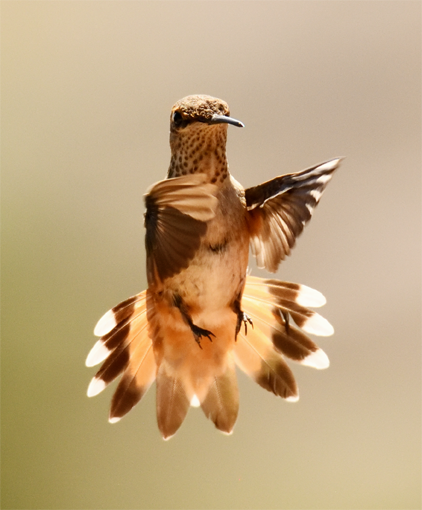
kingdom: Animalia
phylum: Chordata
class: Aves
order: Apodiformes
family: Trochilidae
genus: Selasphorus
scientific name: Selasphorus rufus
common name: Rufous hummingbird
